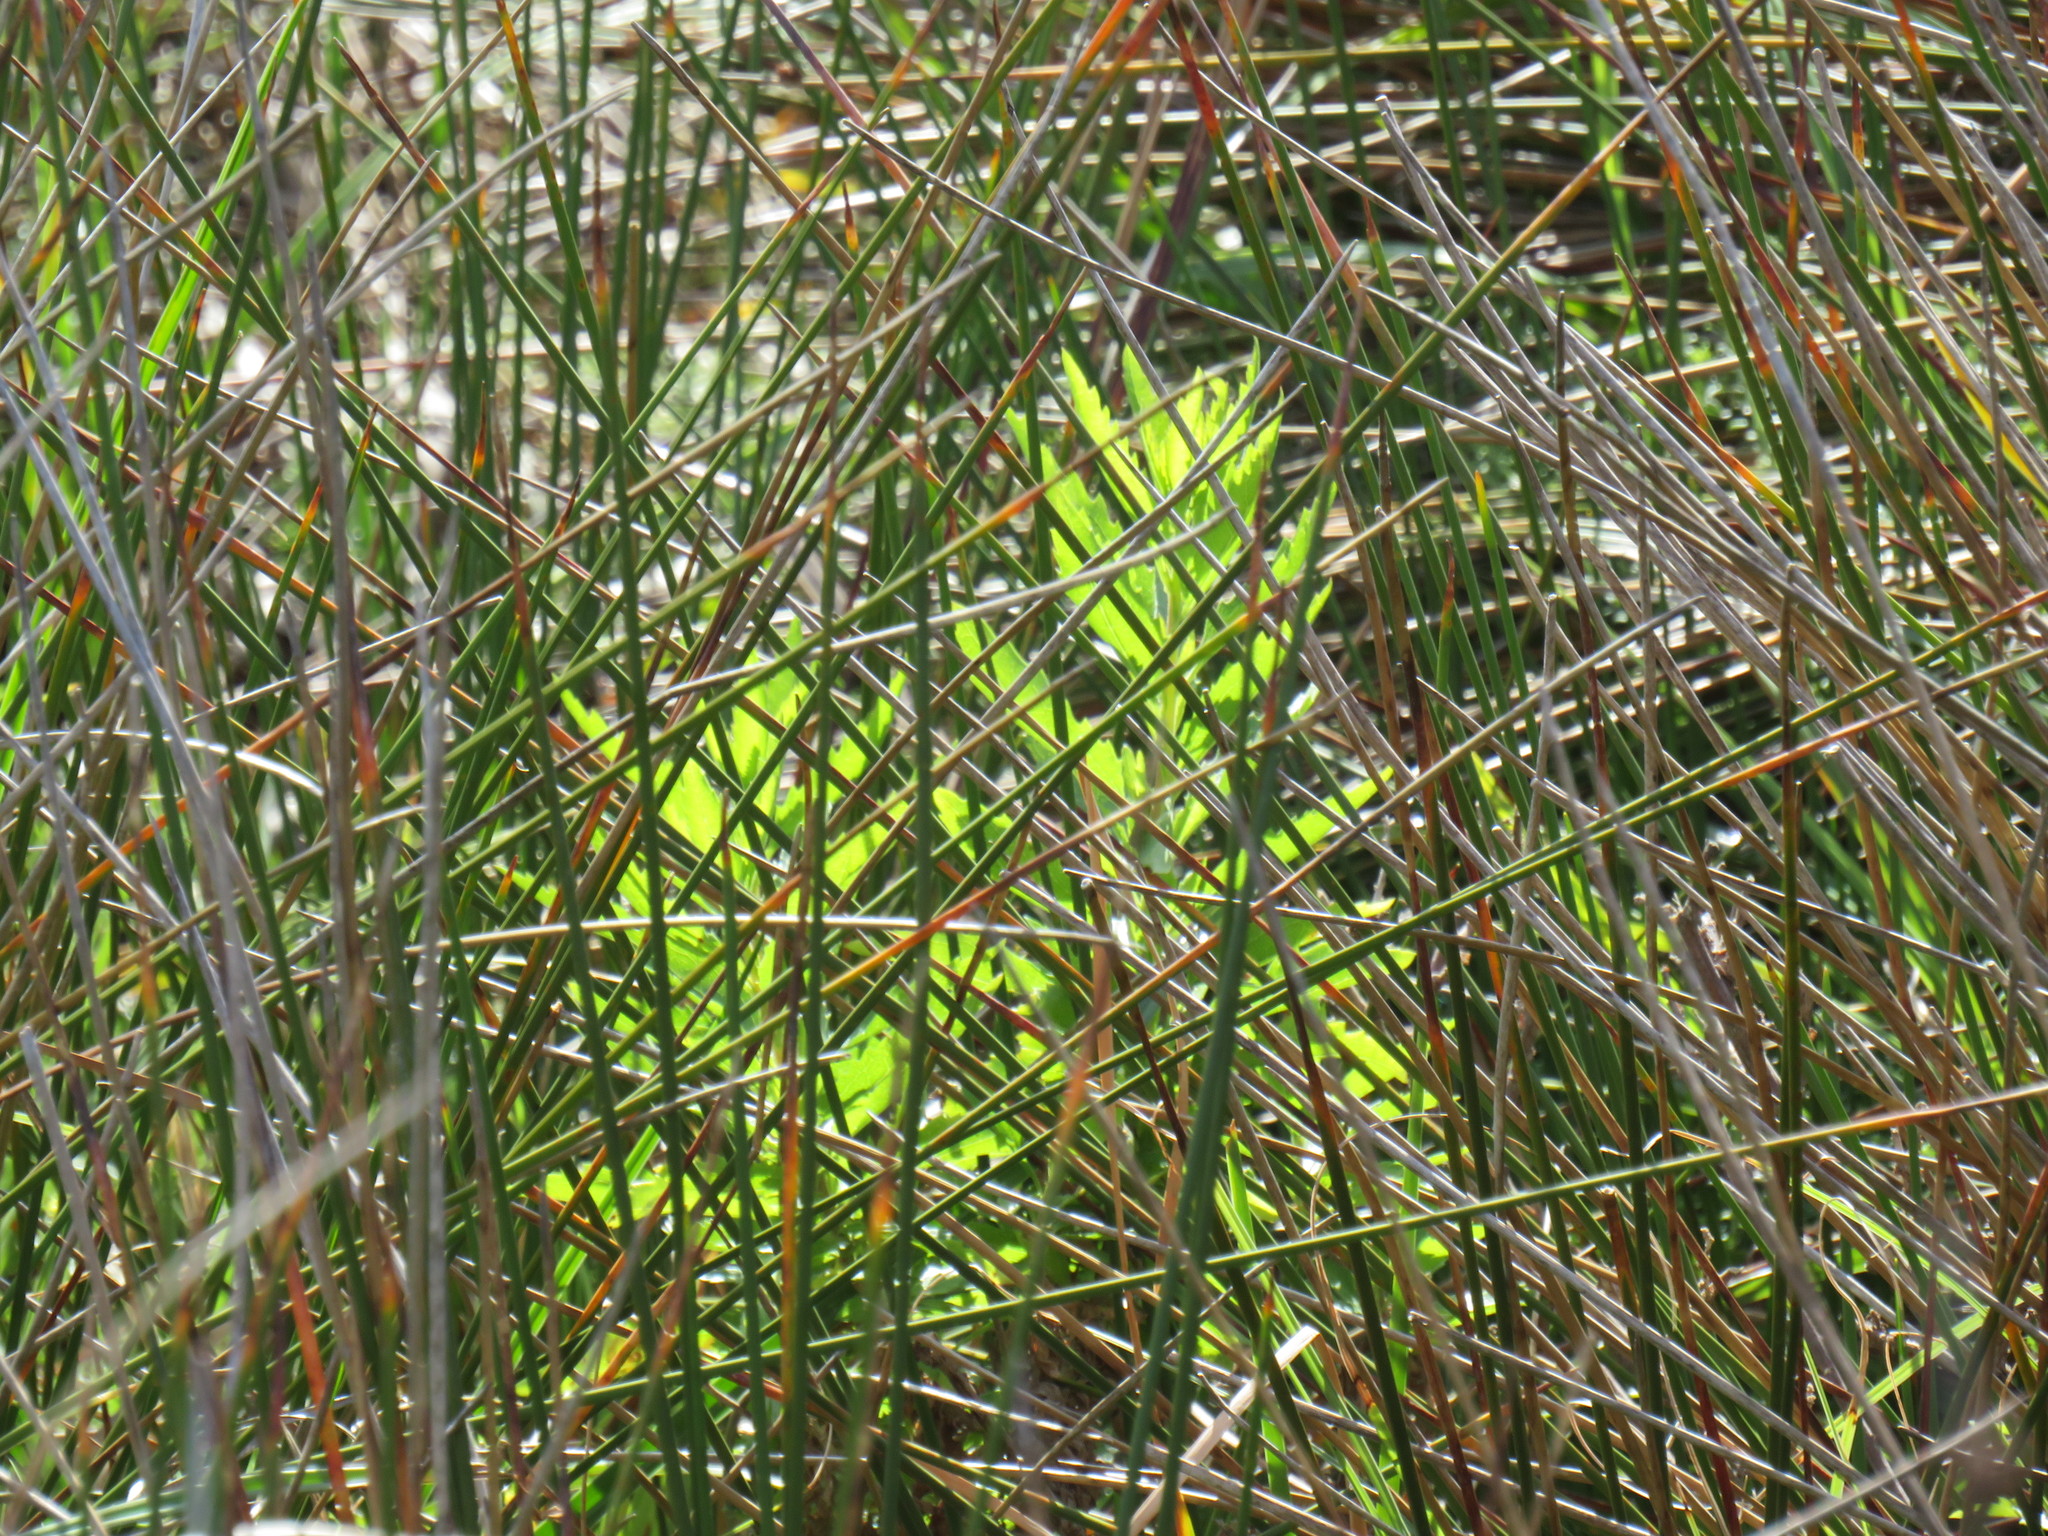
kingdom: Plantae
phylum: Tracheophyta
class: Magnoliopsida
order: Asterales
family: Asteraceae
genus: Nidorella
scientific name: Nidorella ivifolia
